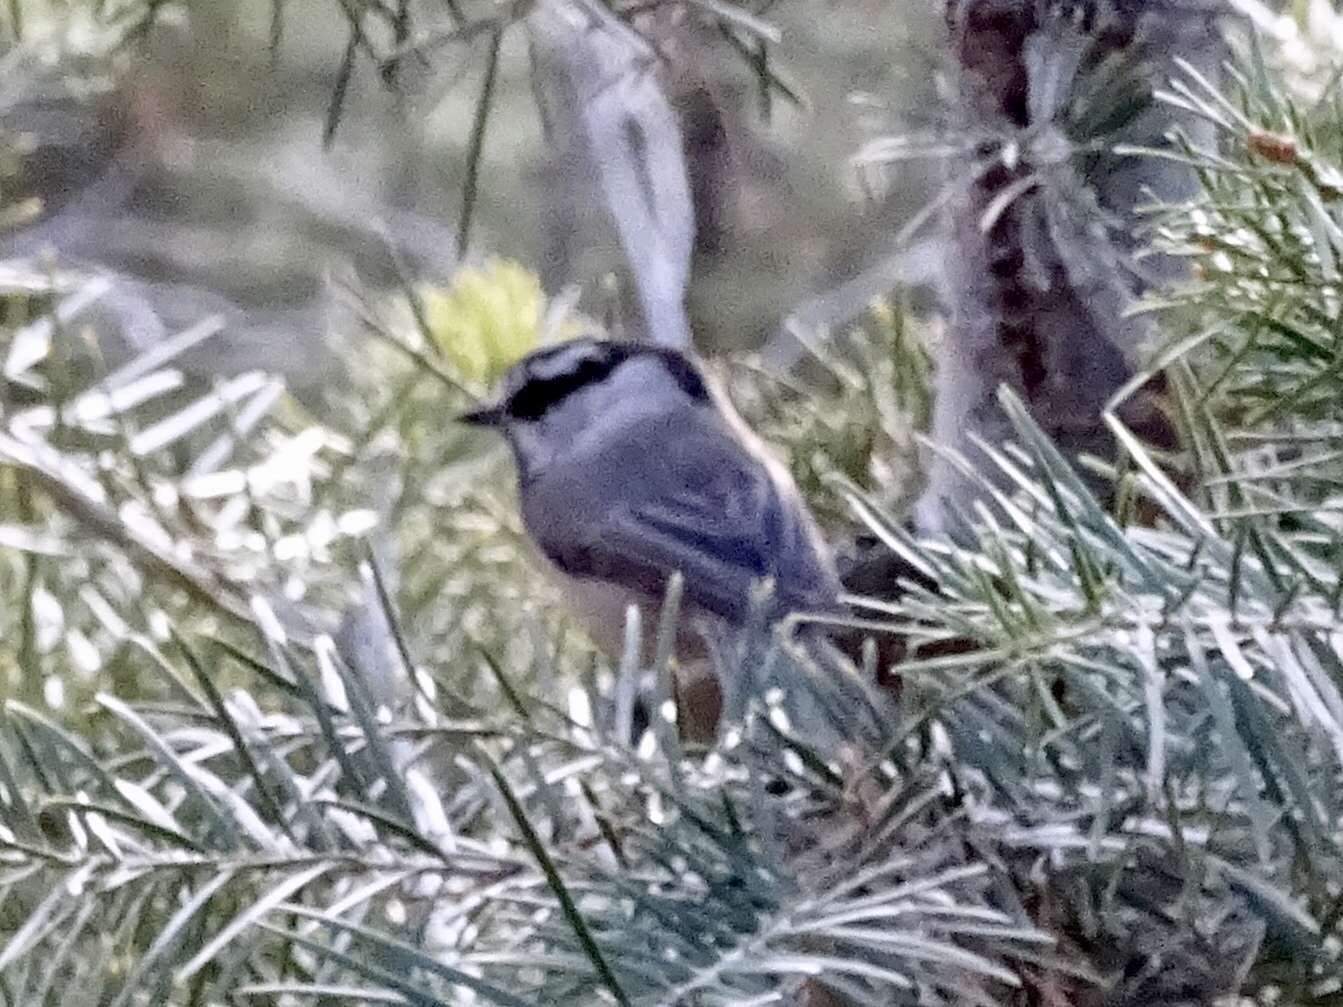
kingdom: Animalia
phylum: Chordata
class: Aves
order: Passeriformes
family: Paridae
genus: Poecile
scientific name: Poecile gambeli
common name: Mountain chickadee
